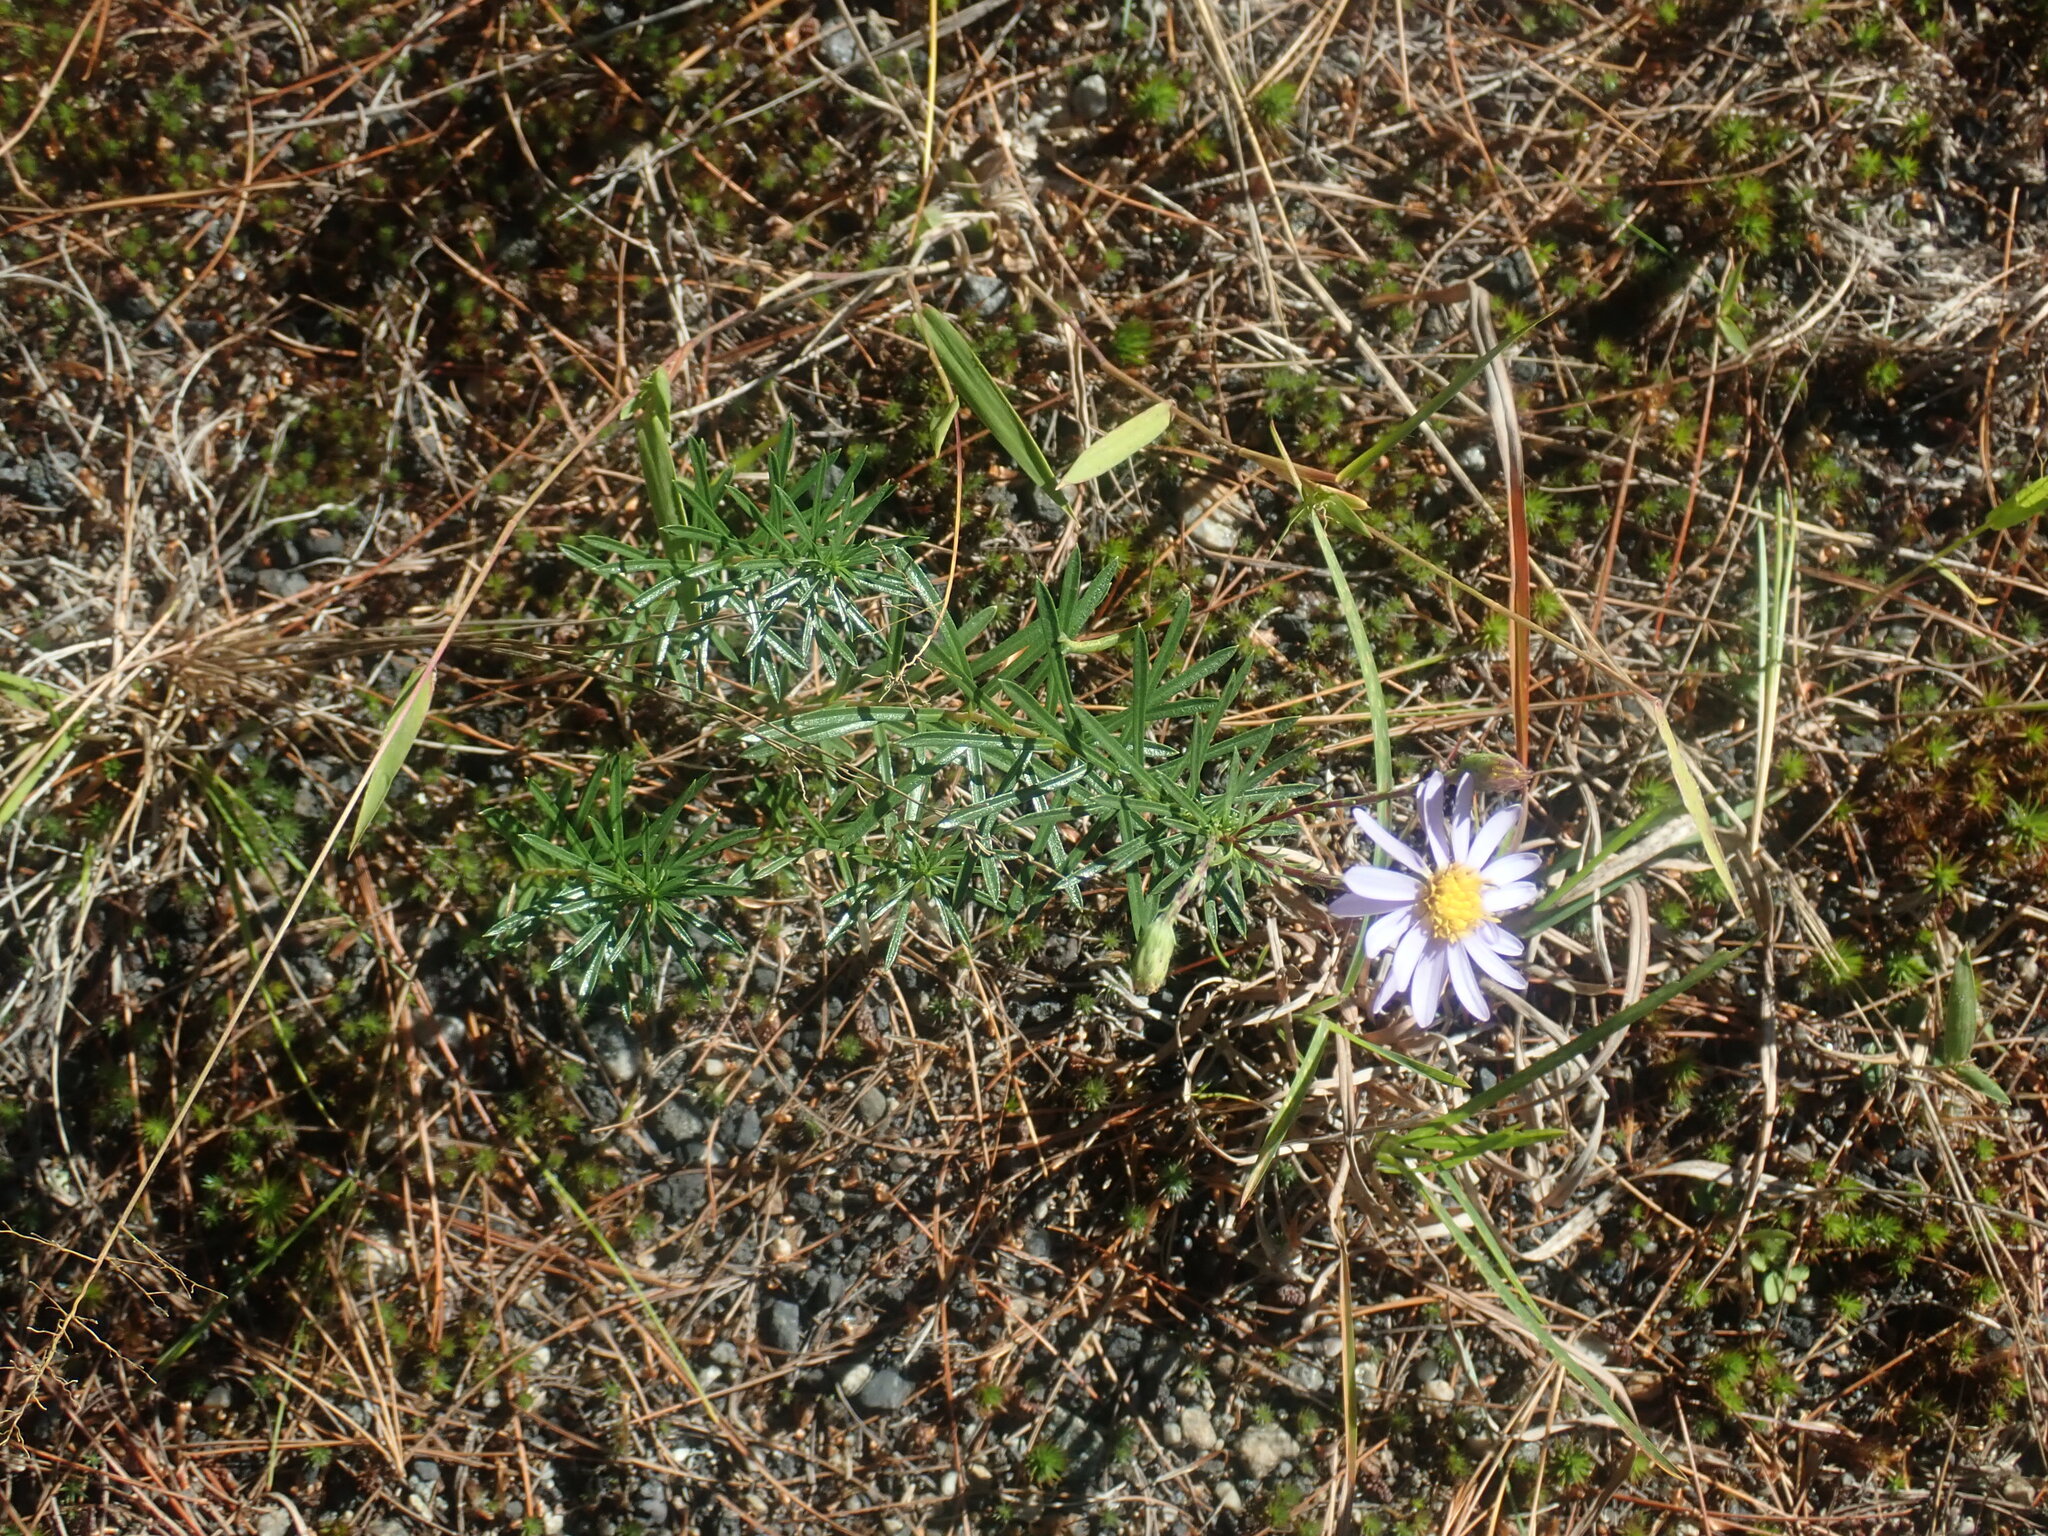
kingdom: Plantae
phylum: Tracheophyta
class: Magnoliopsida
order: Asterales
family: Asteraceae
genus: Ionactis
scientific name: Ionactis linariifolia
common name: Flax-leaf aster
